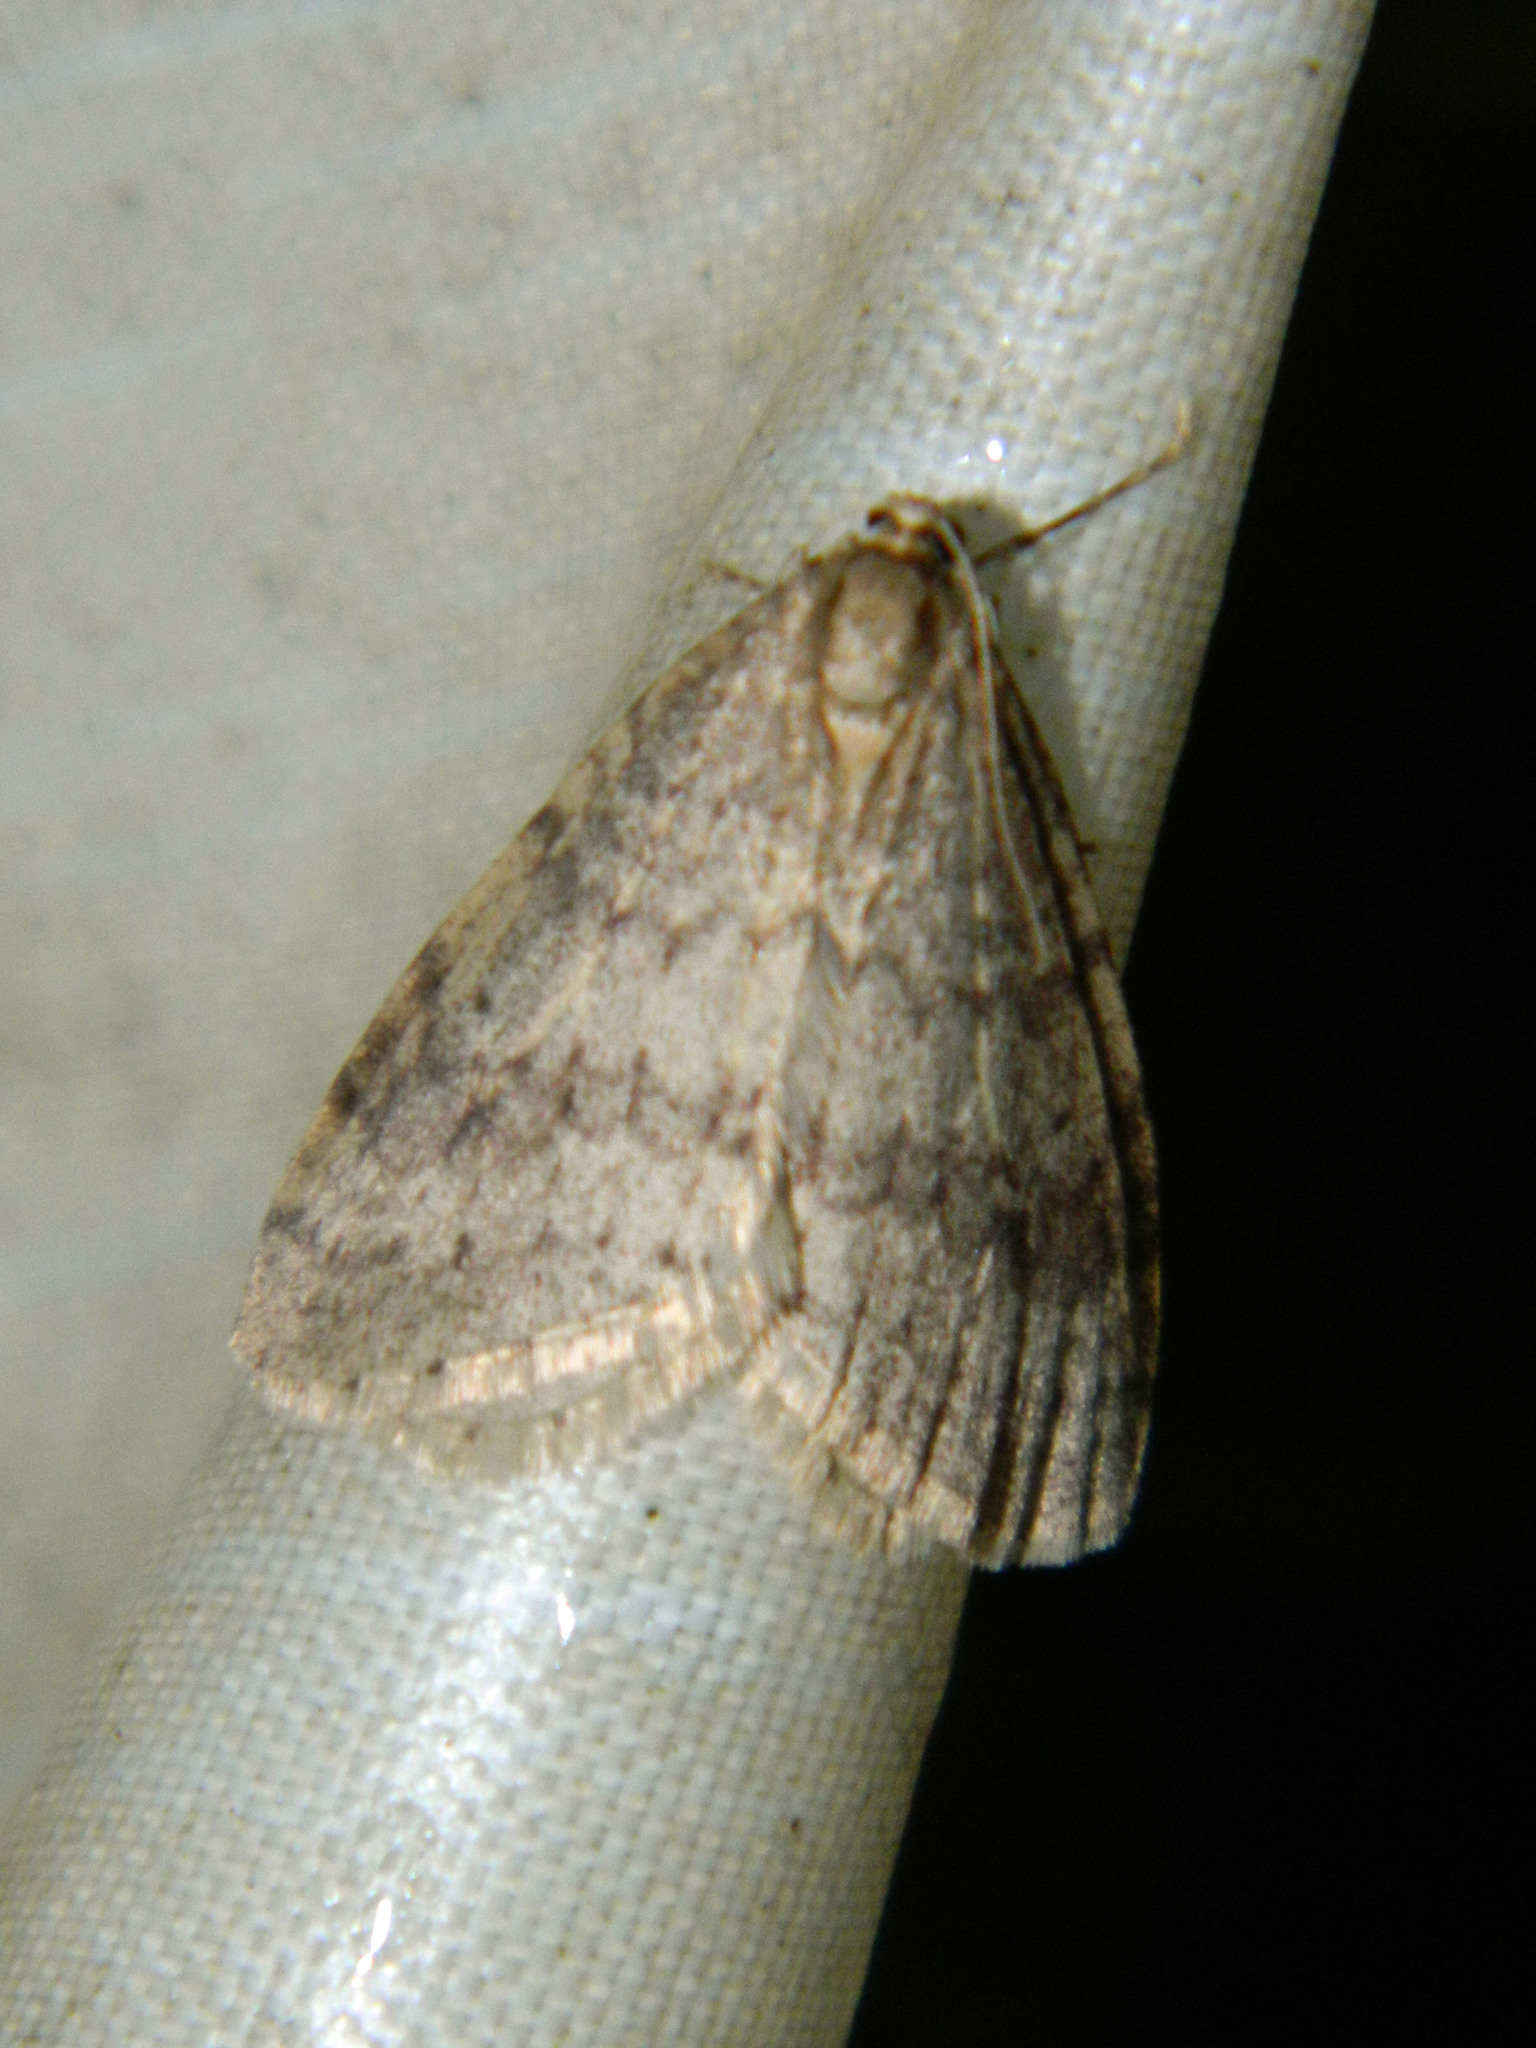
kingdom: Animalia
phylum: Arthropoda
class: Insecta
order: Lepidoptera
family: Geometridae
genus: Operophtera
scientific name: Operophtera bruceata
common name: Bruce spanworm
